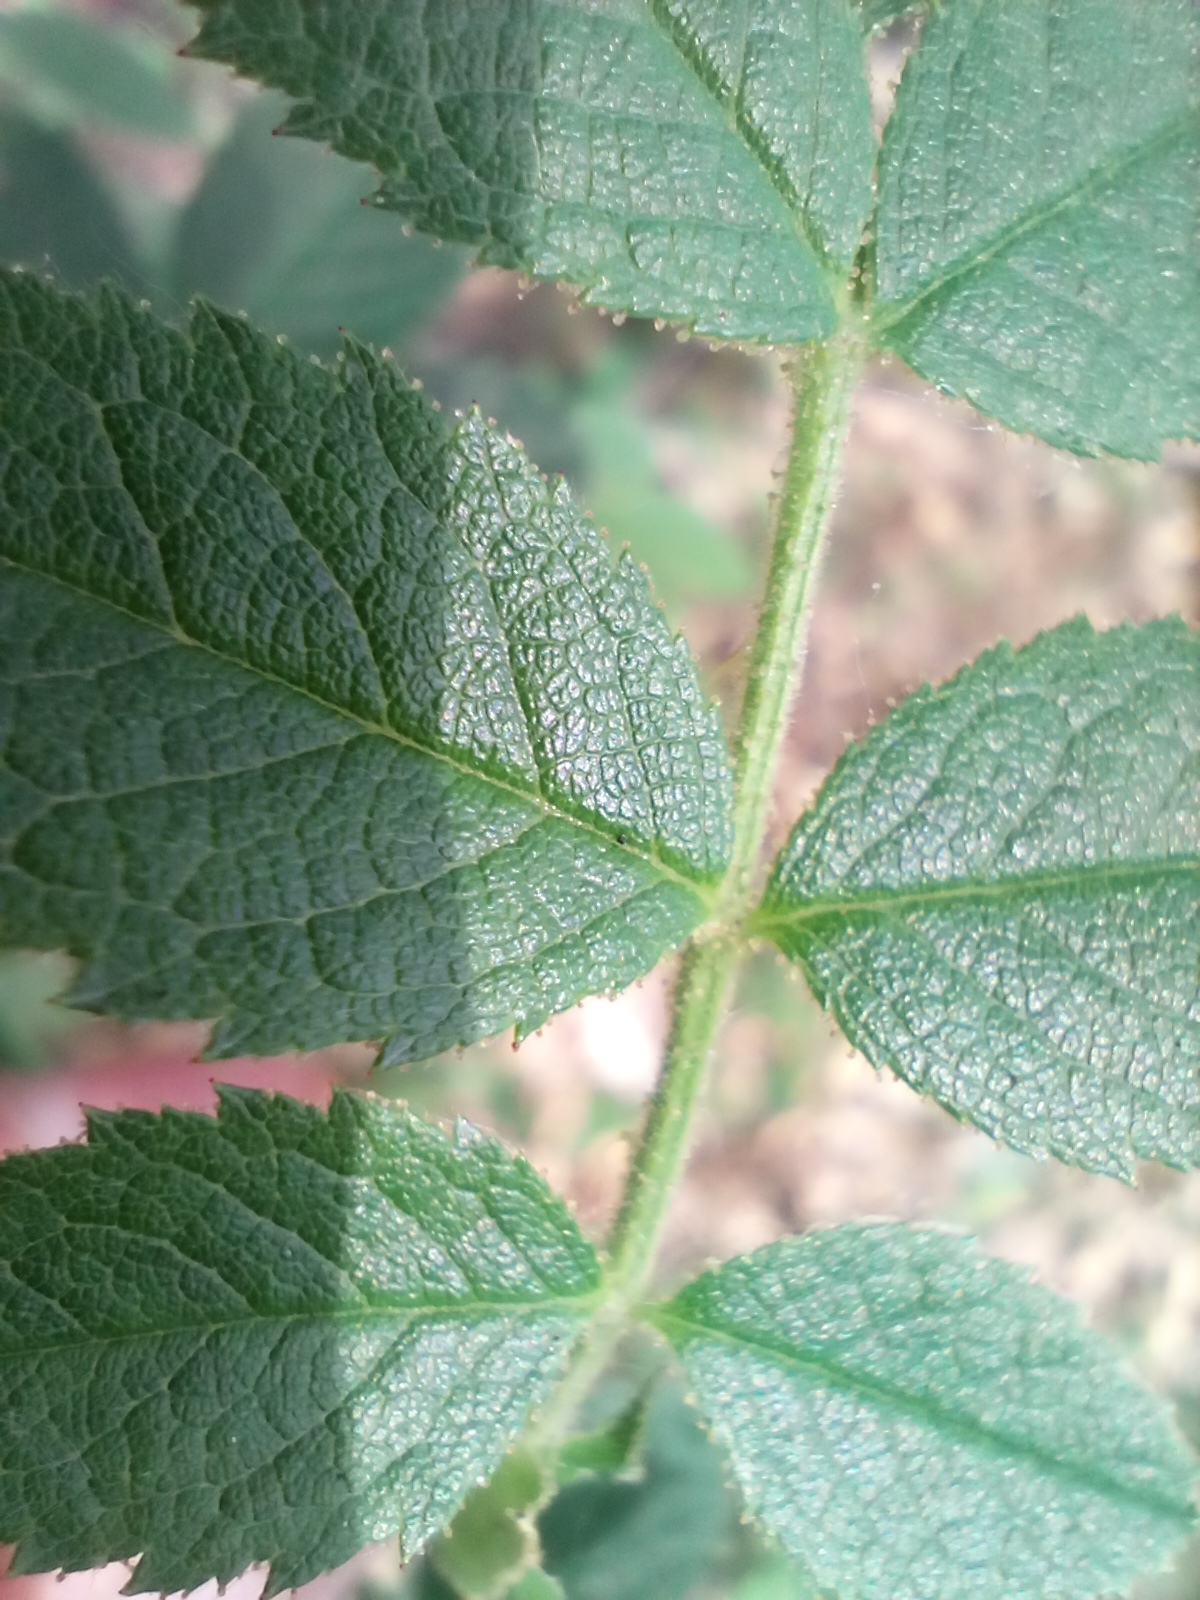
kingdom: Plantae
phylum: Tracheophyta
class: Magnoliopsida
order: Rosales
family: Rosaceae
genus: Rosa
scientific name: Rosa inodora
